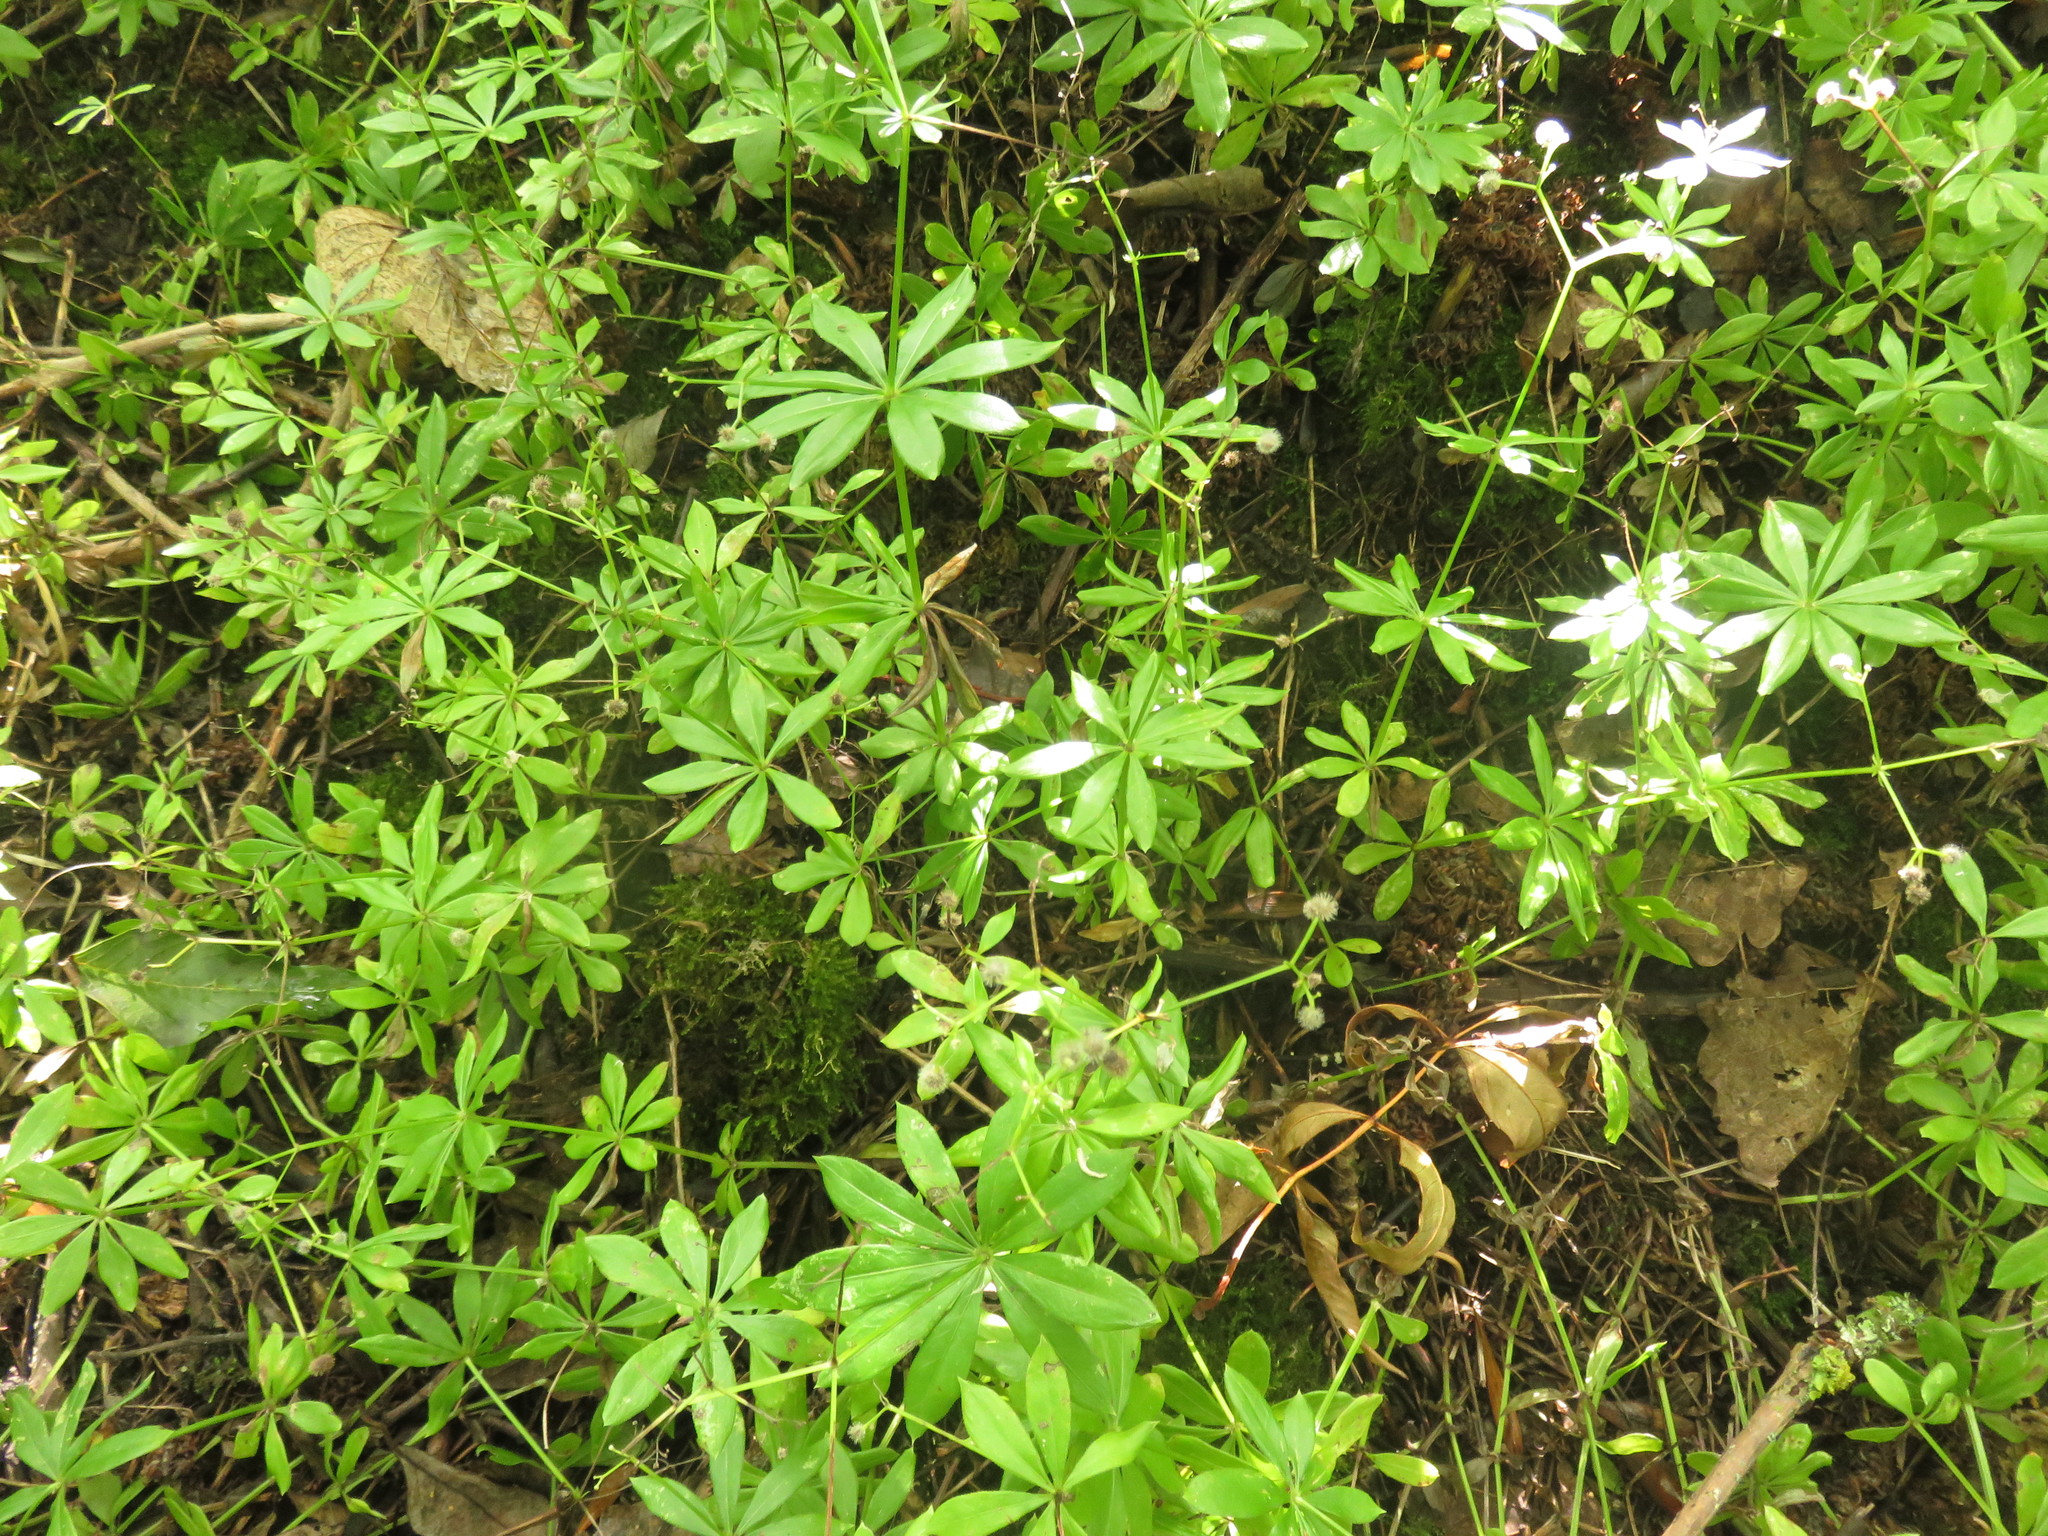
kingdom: Plantae
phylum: Tracheophyta
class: Magnoliopsida
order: Gentianales
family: Rubiaceae
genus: Galium
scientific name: Galium odoratum
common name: Sweet woodruff
